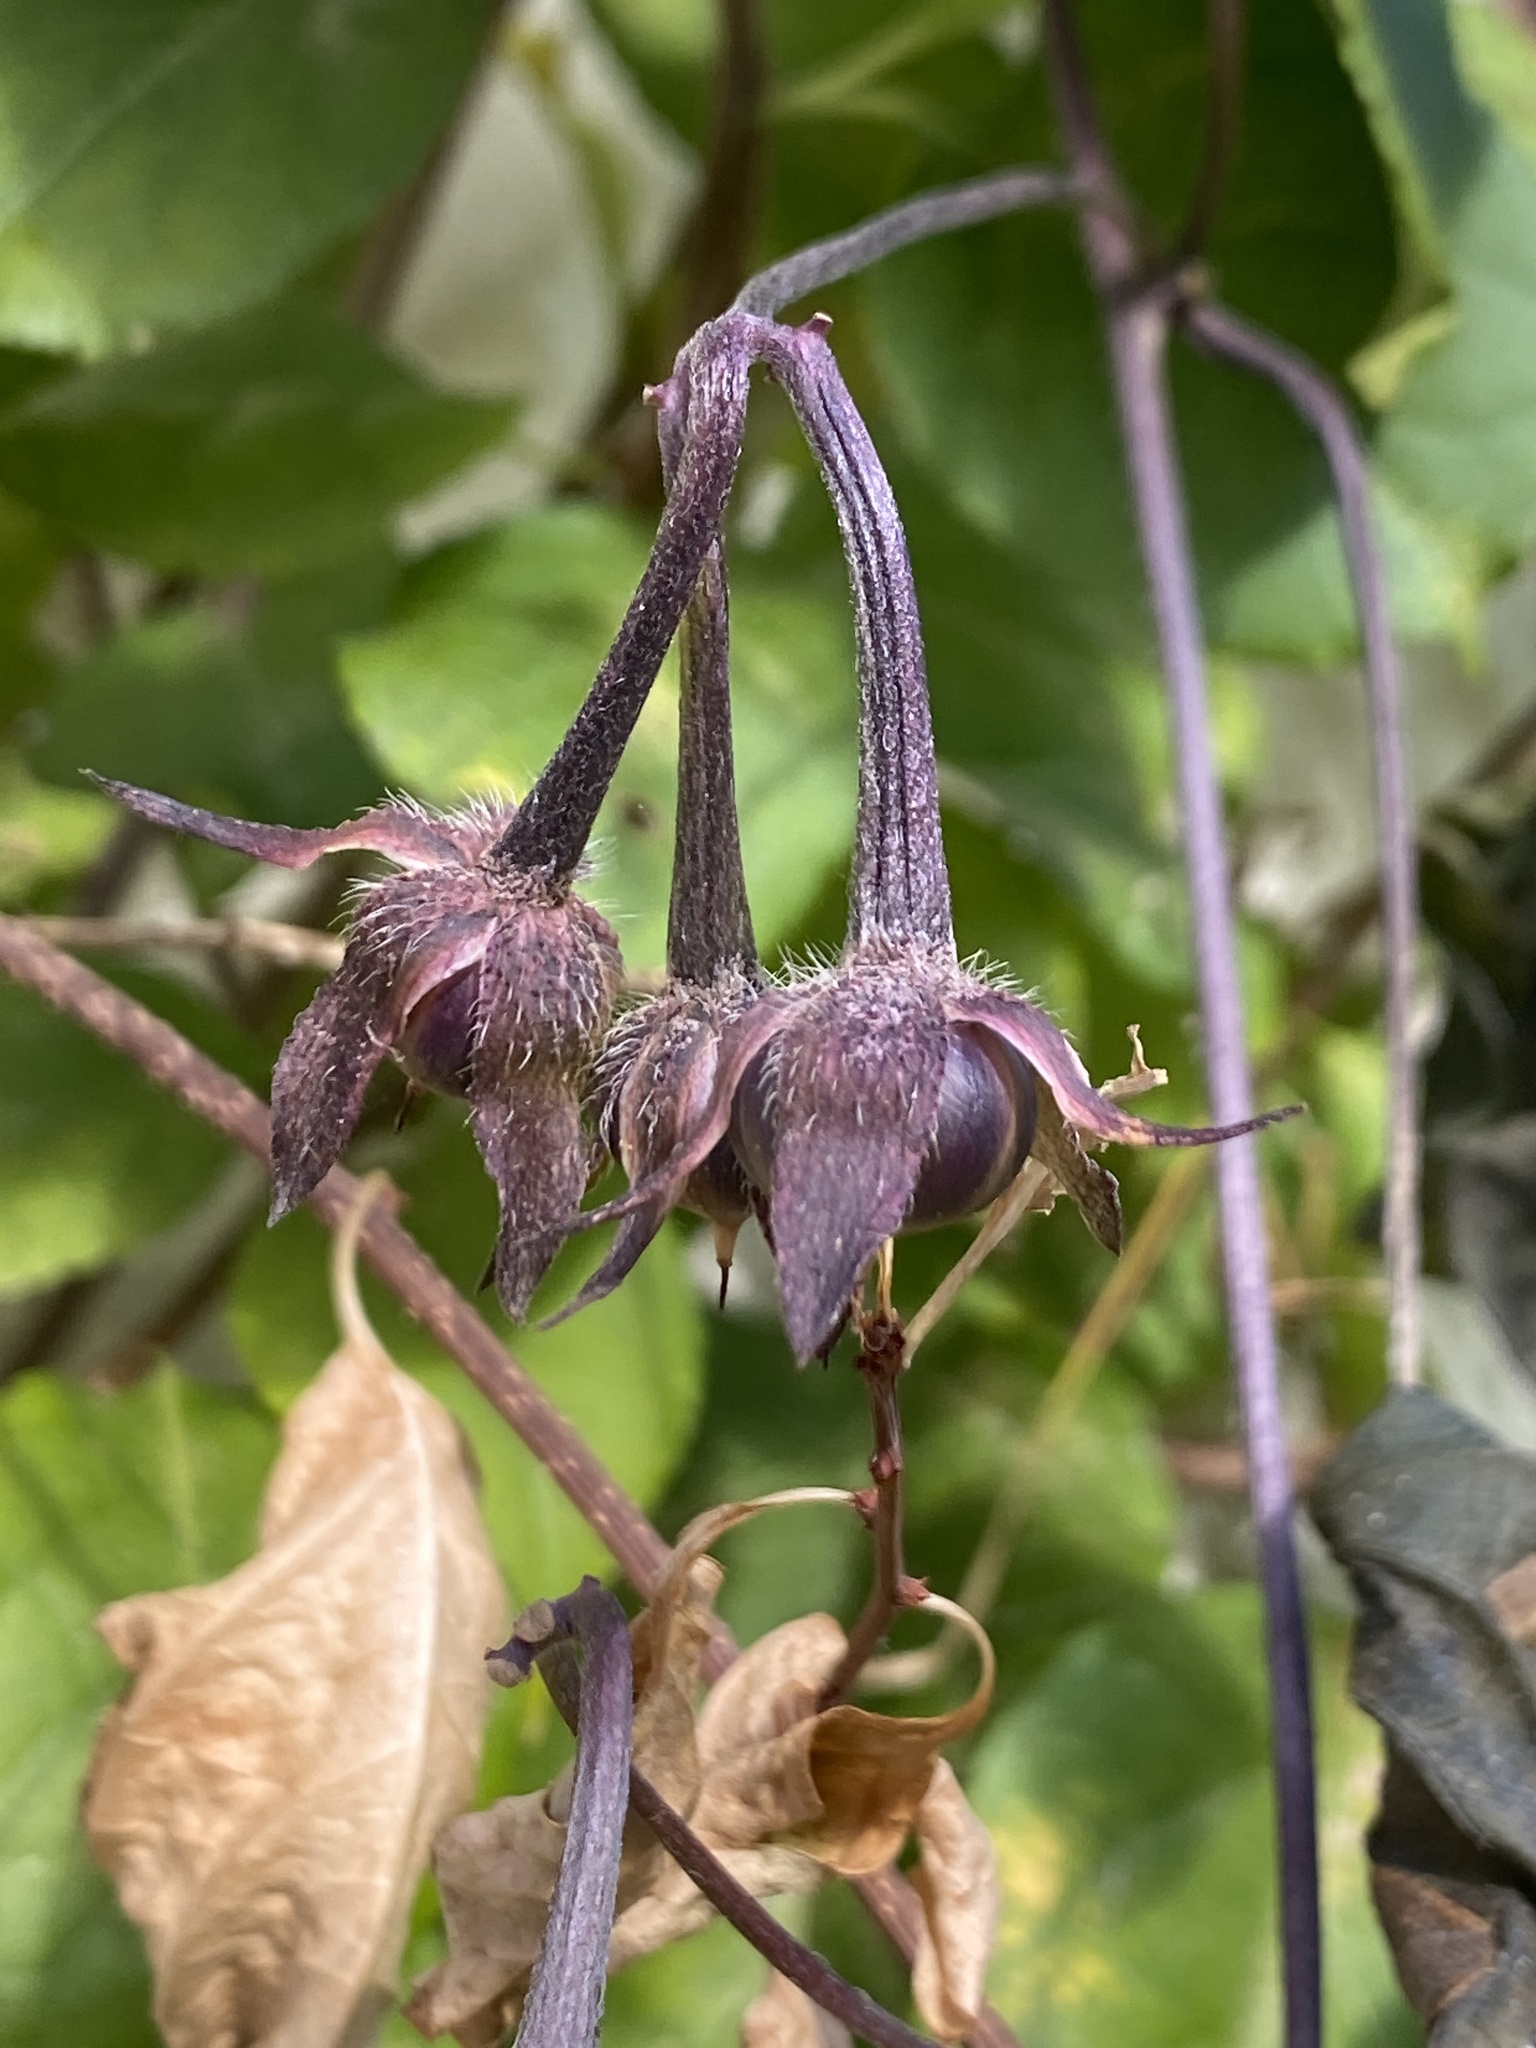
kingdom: Plantae
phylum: Tracheophyta
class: Magnoliopsida
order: Solanales
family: Convolvulaceae
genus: Ipomoea
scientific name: Ipomoea purpurea
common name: Common morning-glory
